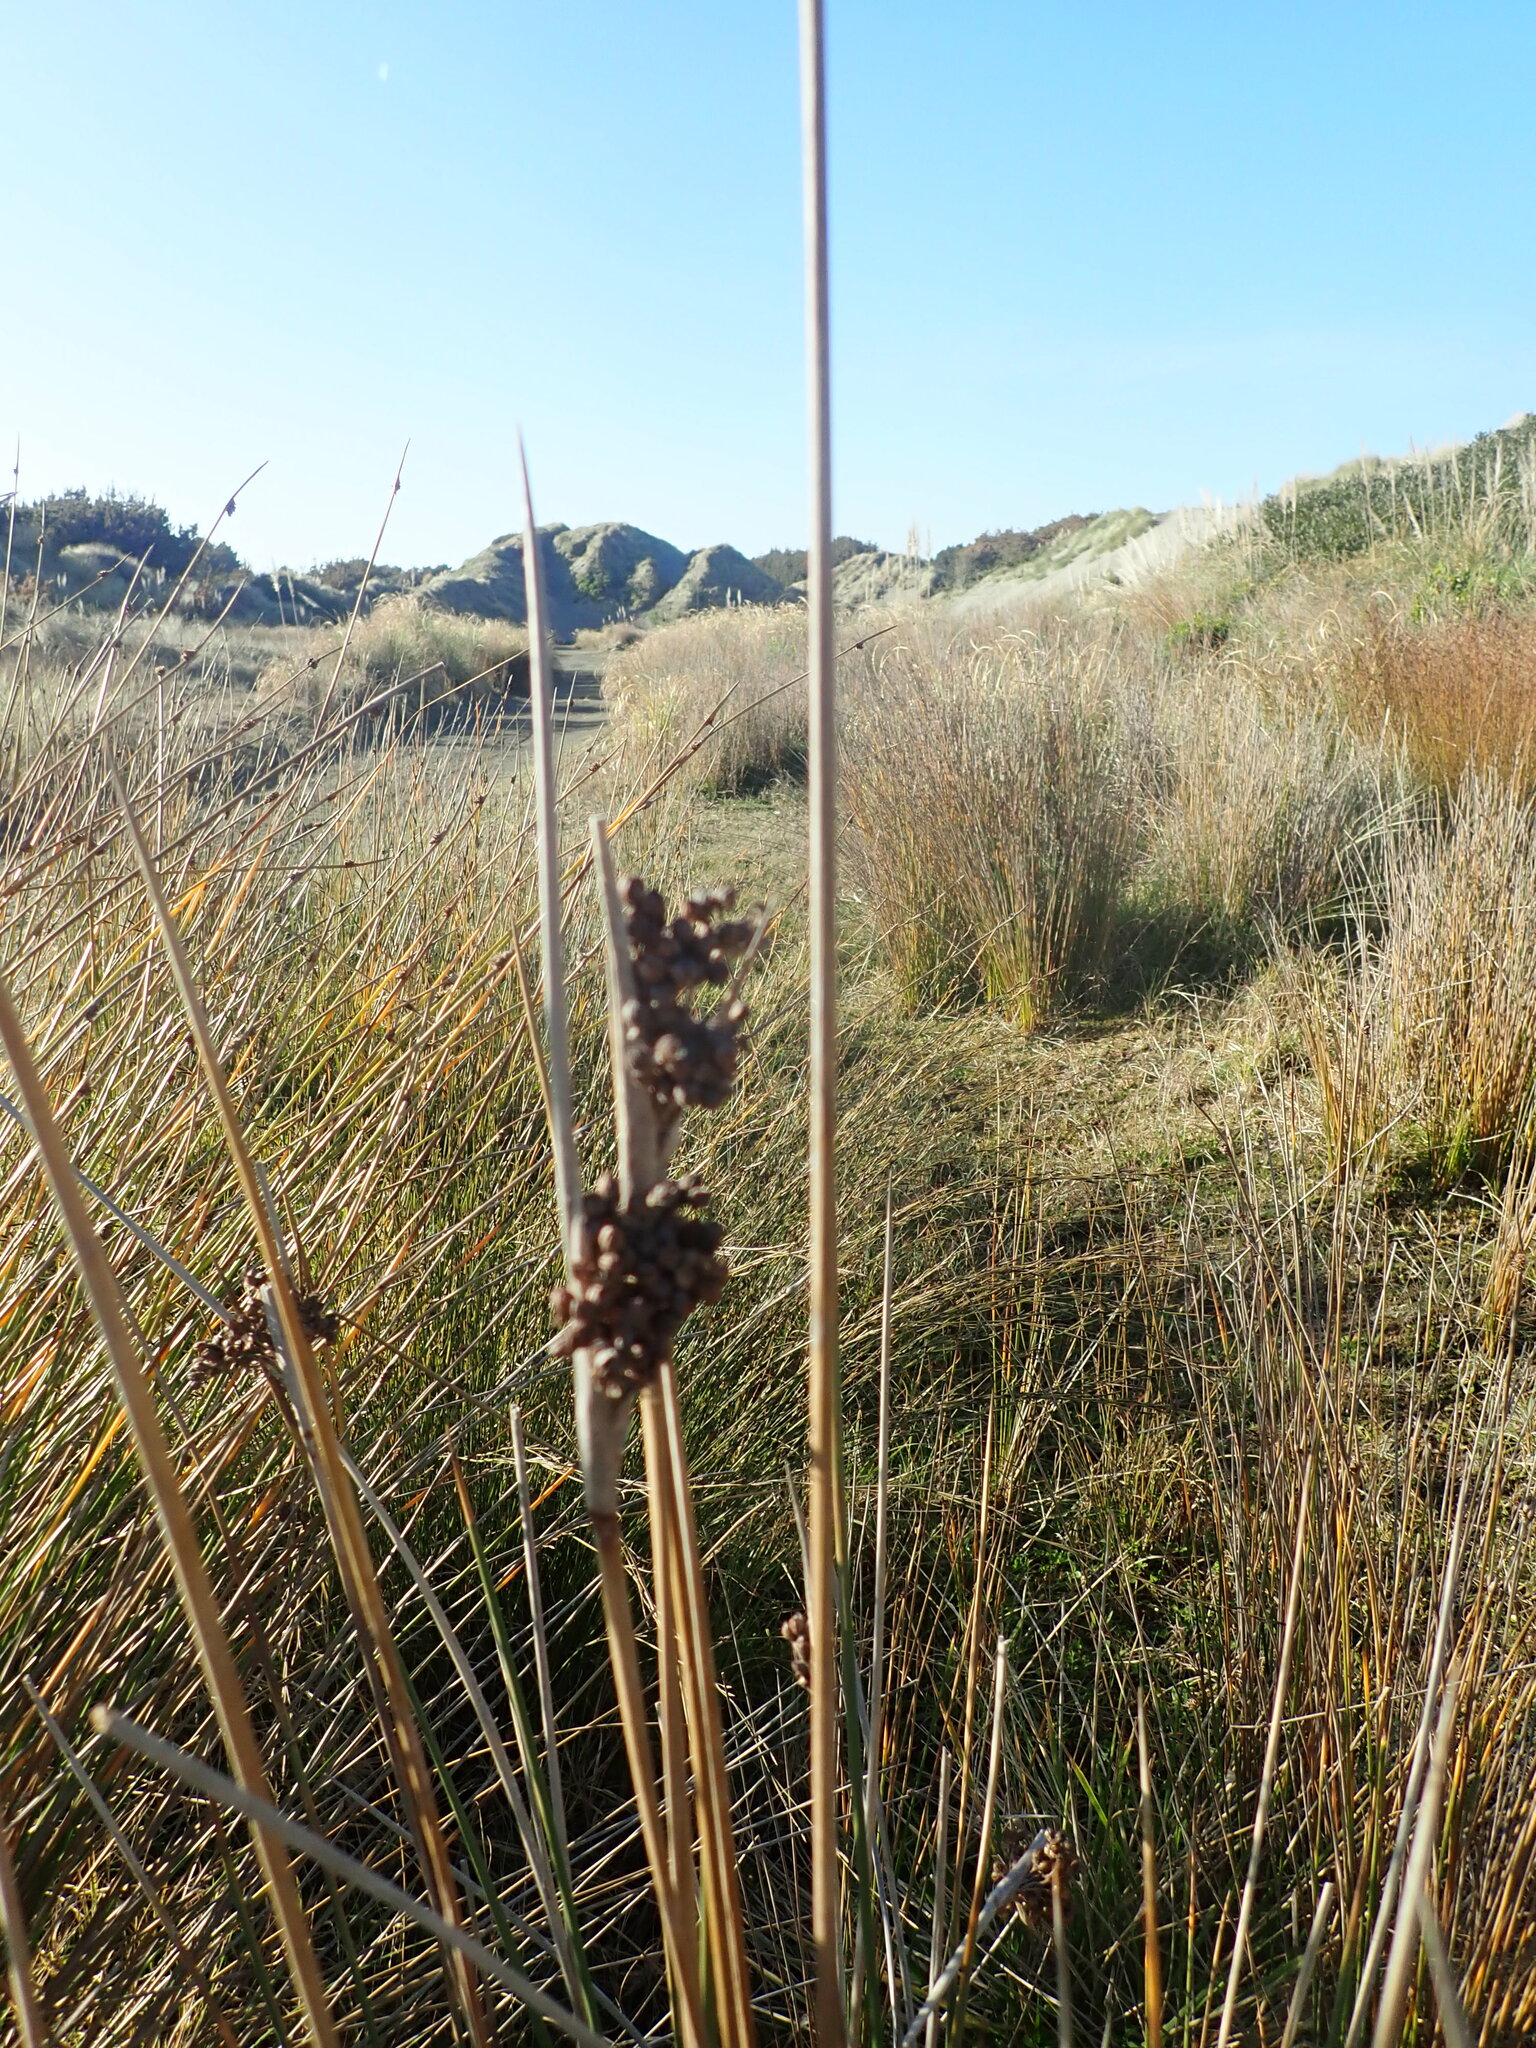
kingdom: Plantae
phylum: Tracheophyta
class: Liliopsida
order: Poales
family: Juncaceae
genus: Juncus
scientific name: Juncus acutus
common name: Sharp rush
